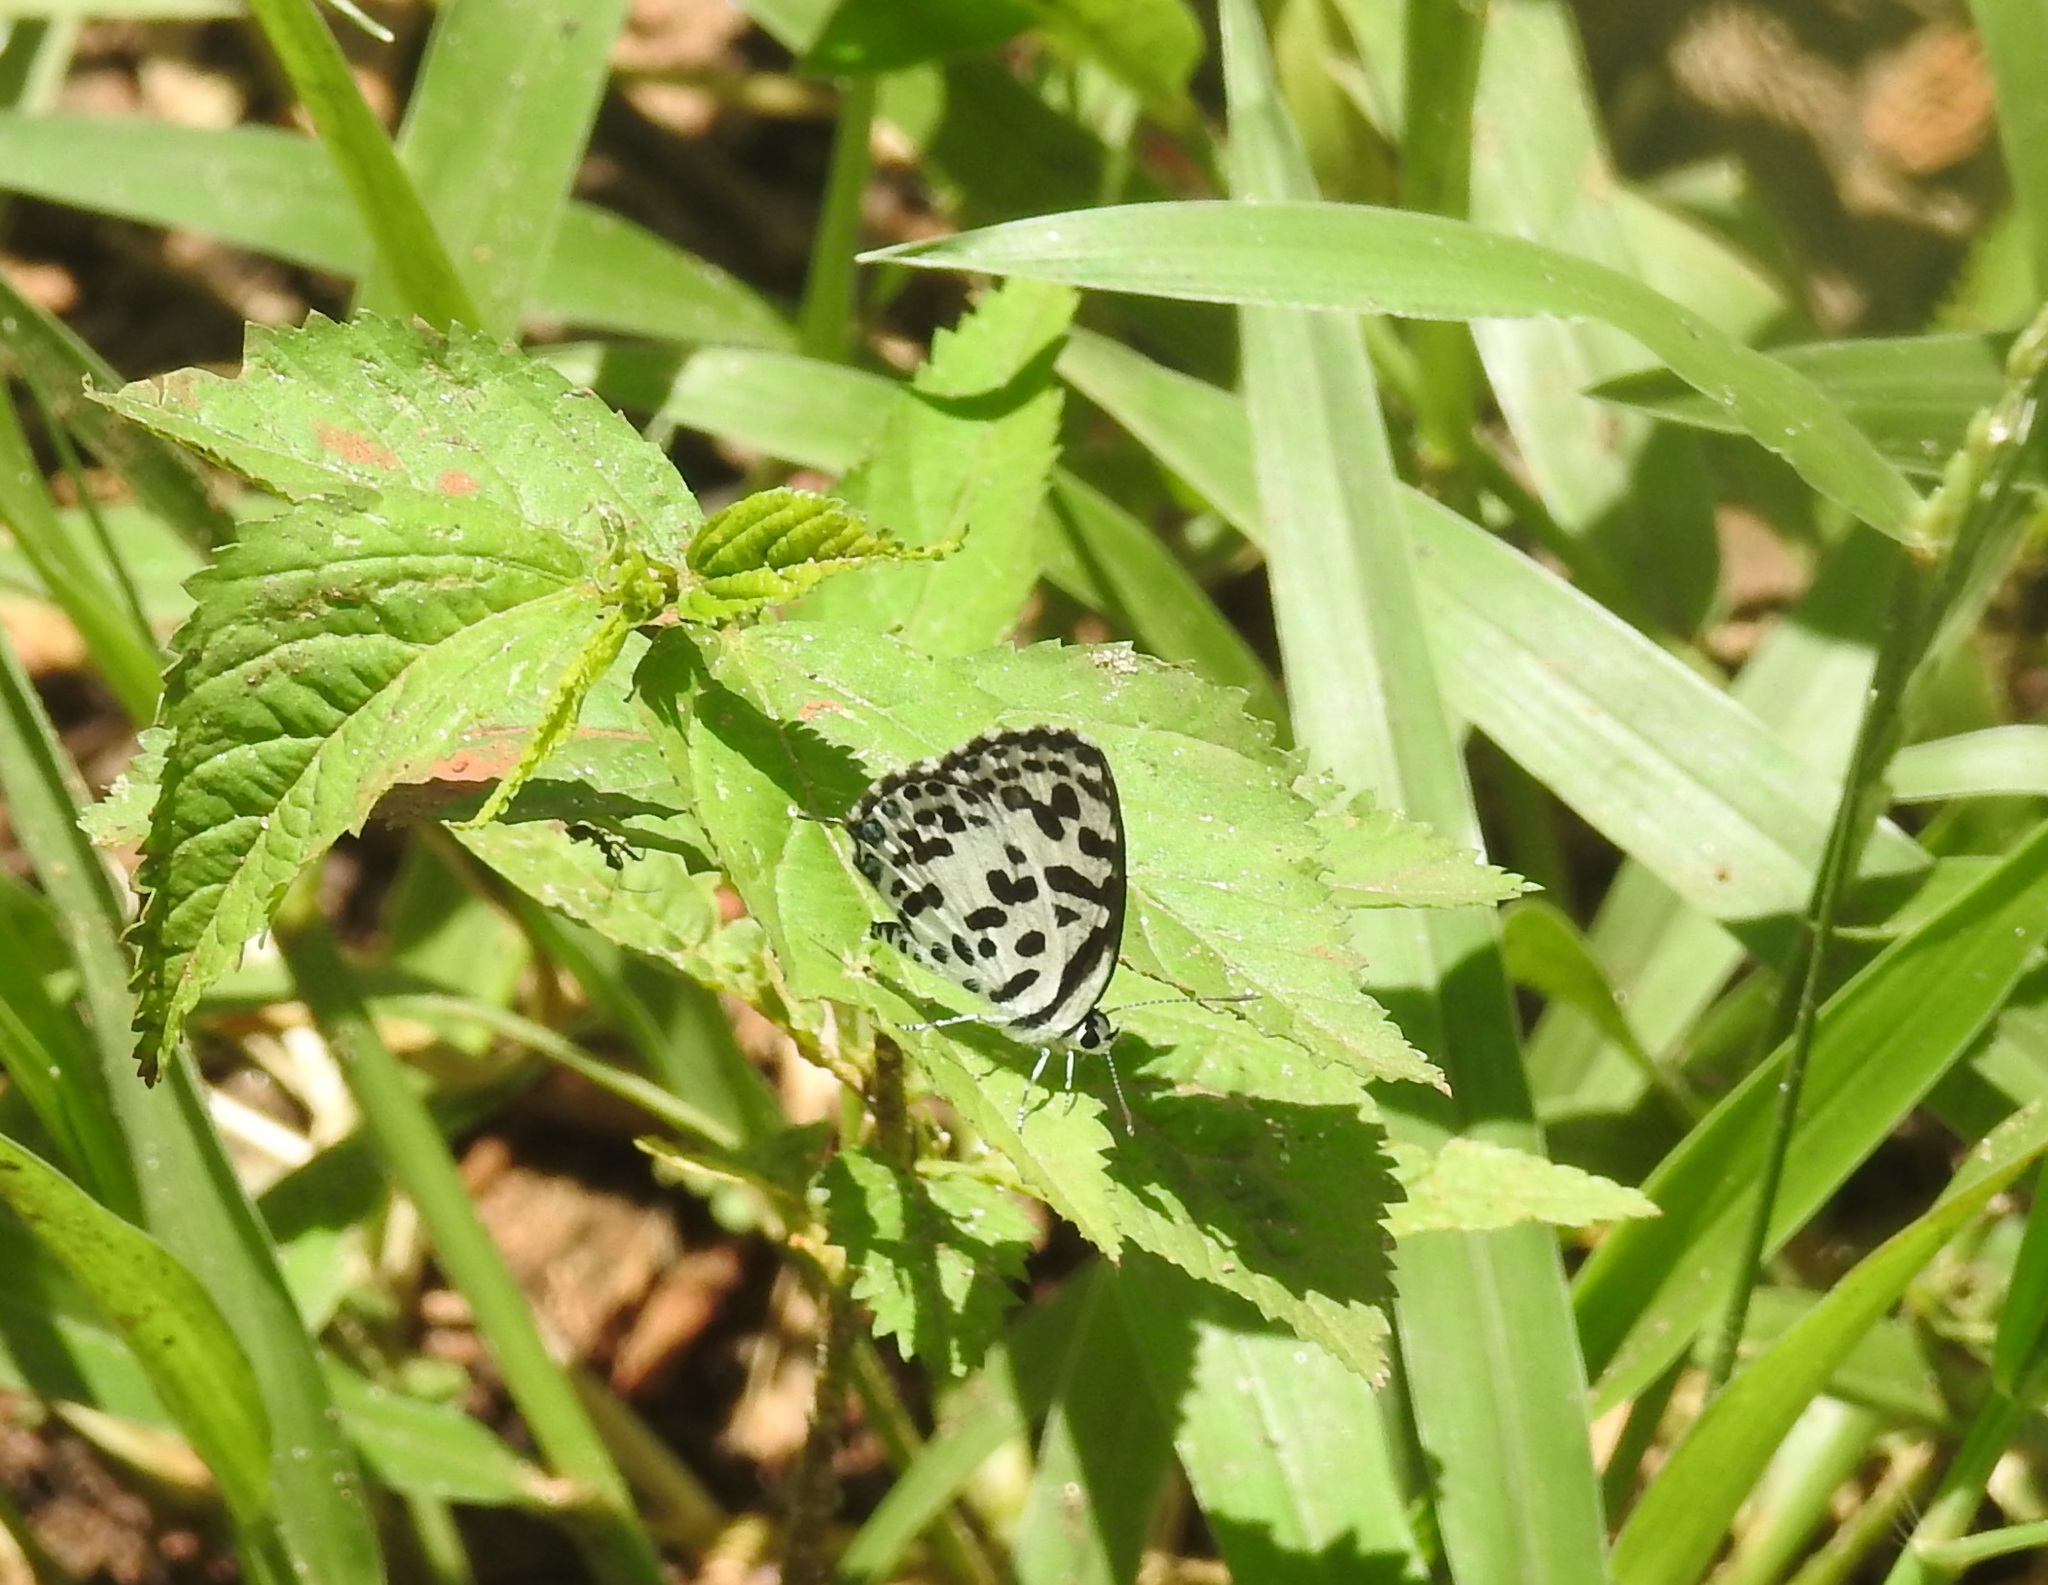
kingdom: Animalia
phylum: Arthropoda
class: Insecta
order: Lepidoptera
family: Lycaenidae
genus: Castalius
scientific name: Castalius rosimon
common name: Common pierrot
